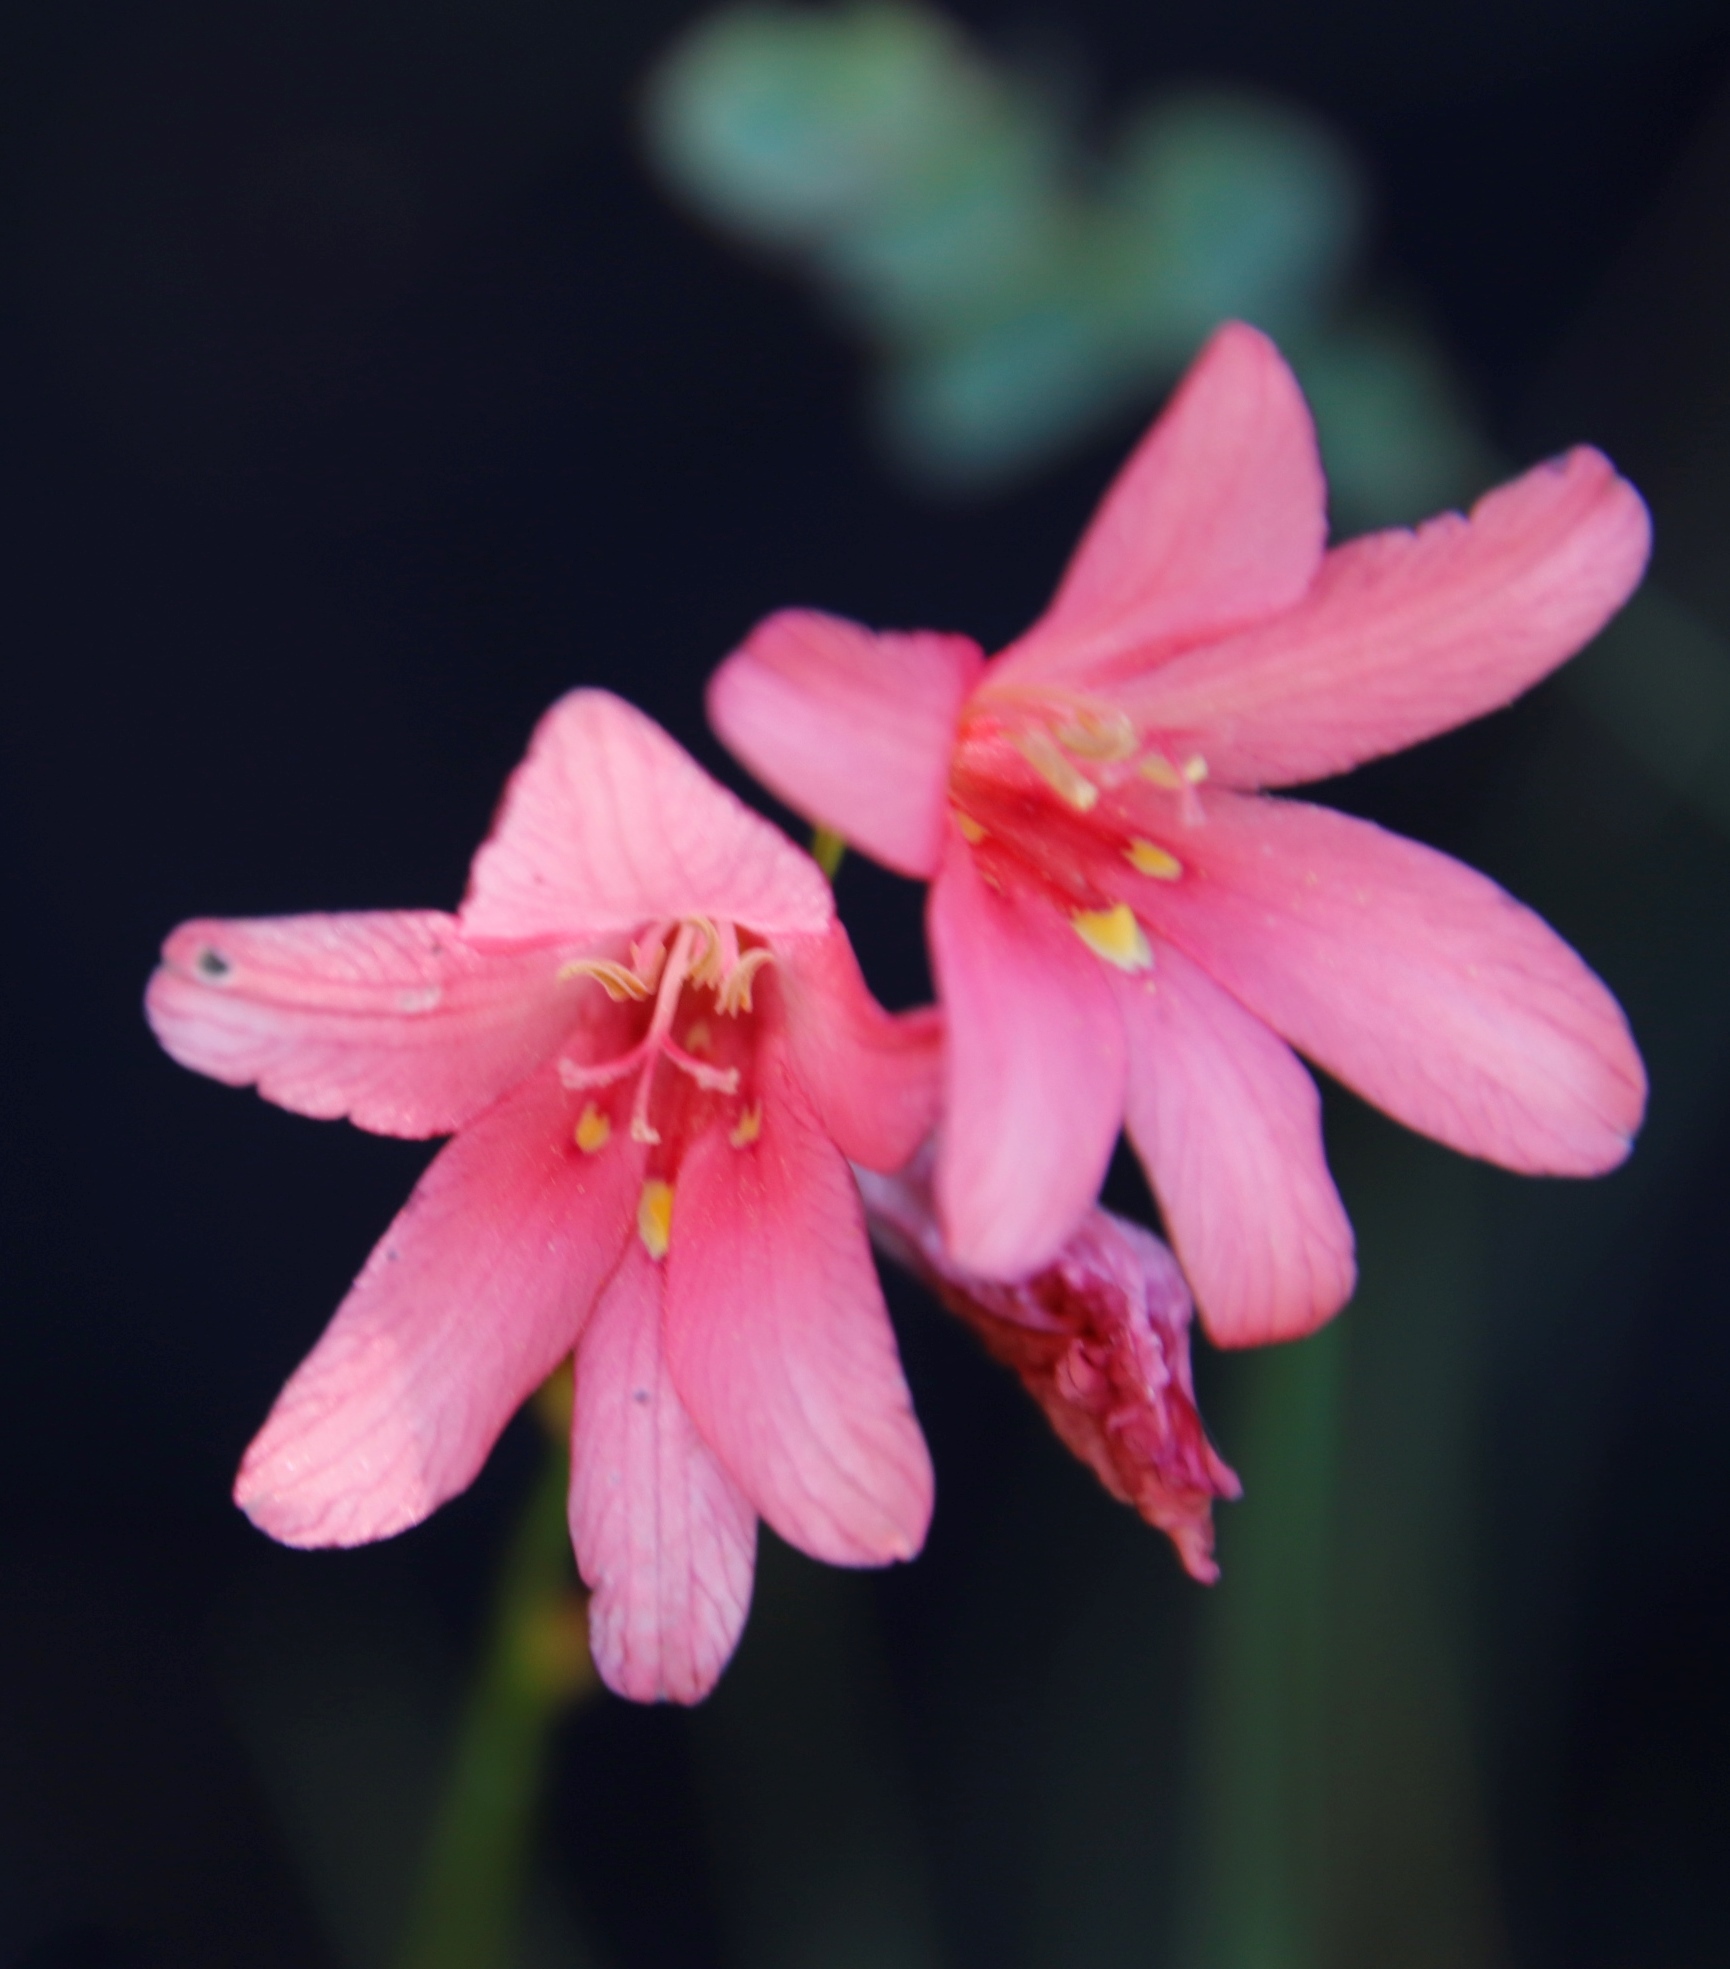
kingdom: Plantae
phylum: Tracheophyta
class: Liliopsida
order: Asparagales
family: Iridaceae
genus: Tritonia
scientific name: Tritonia drakensbergensis
